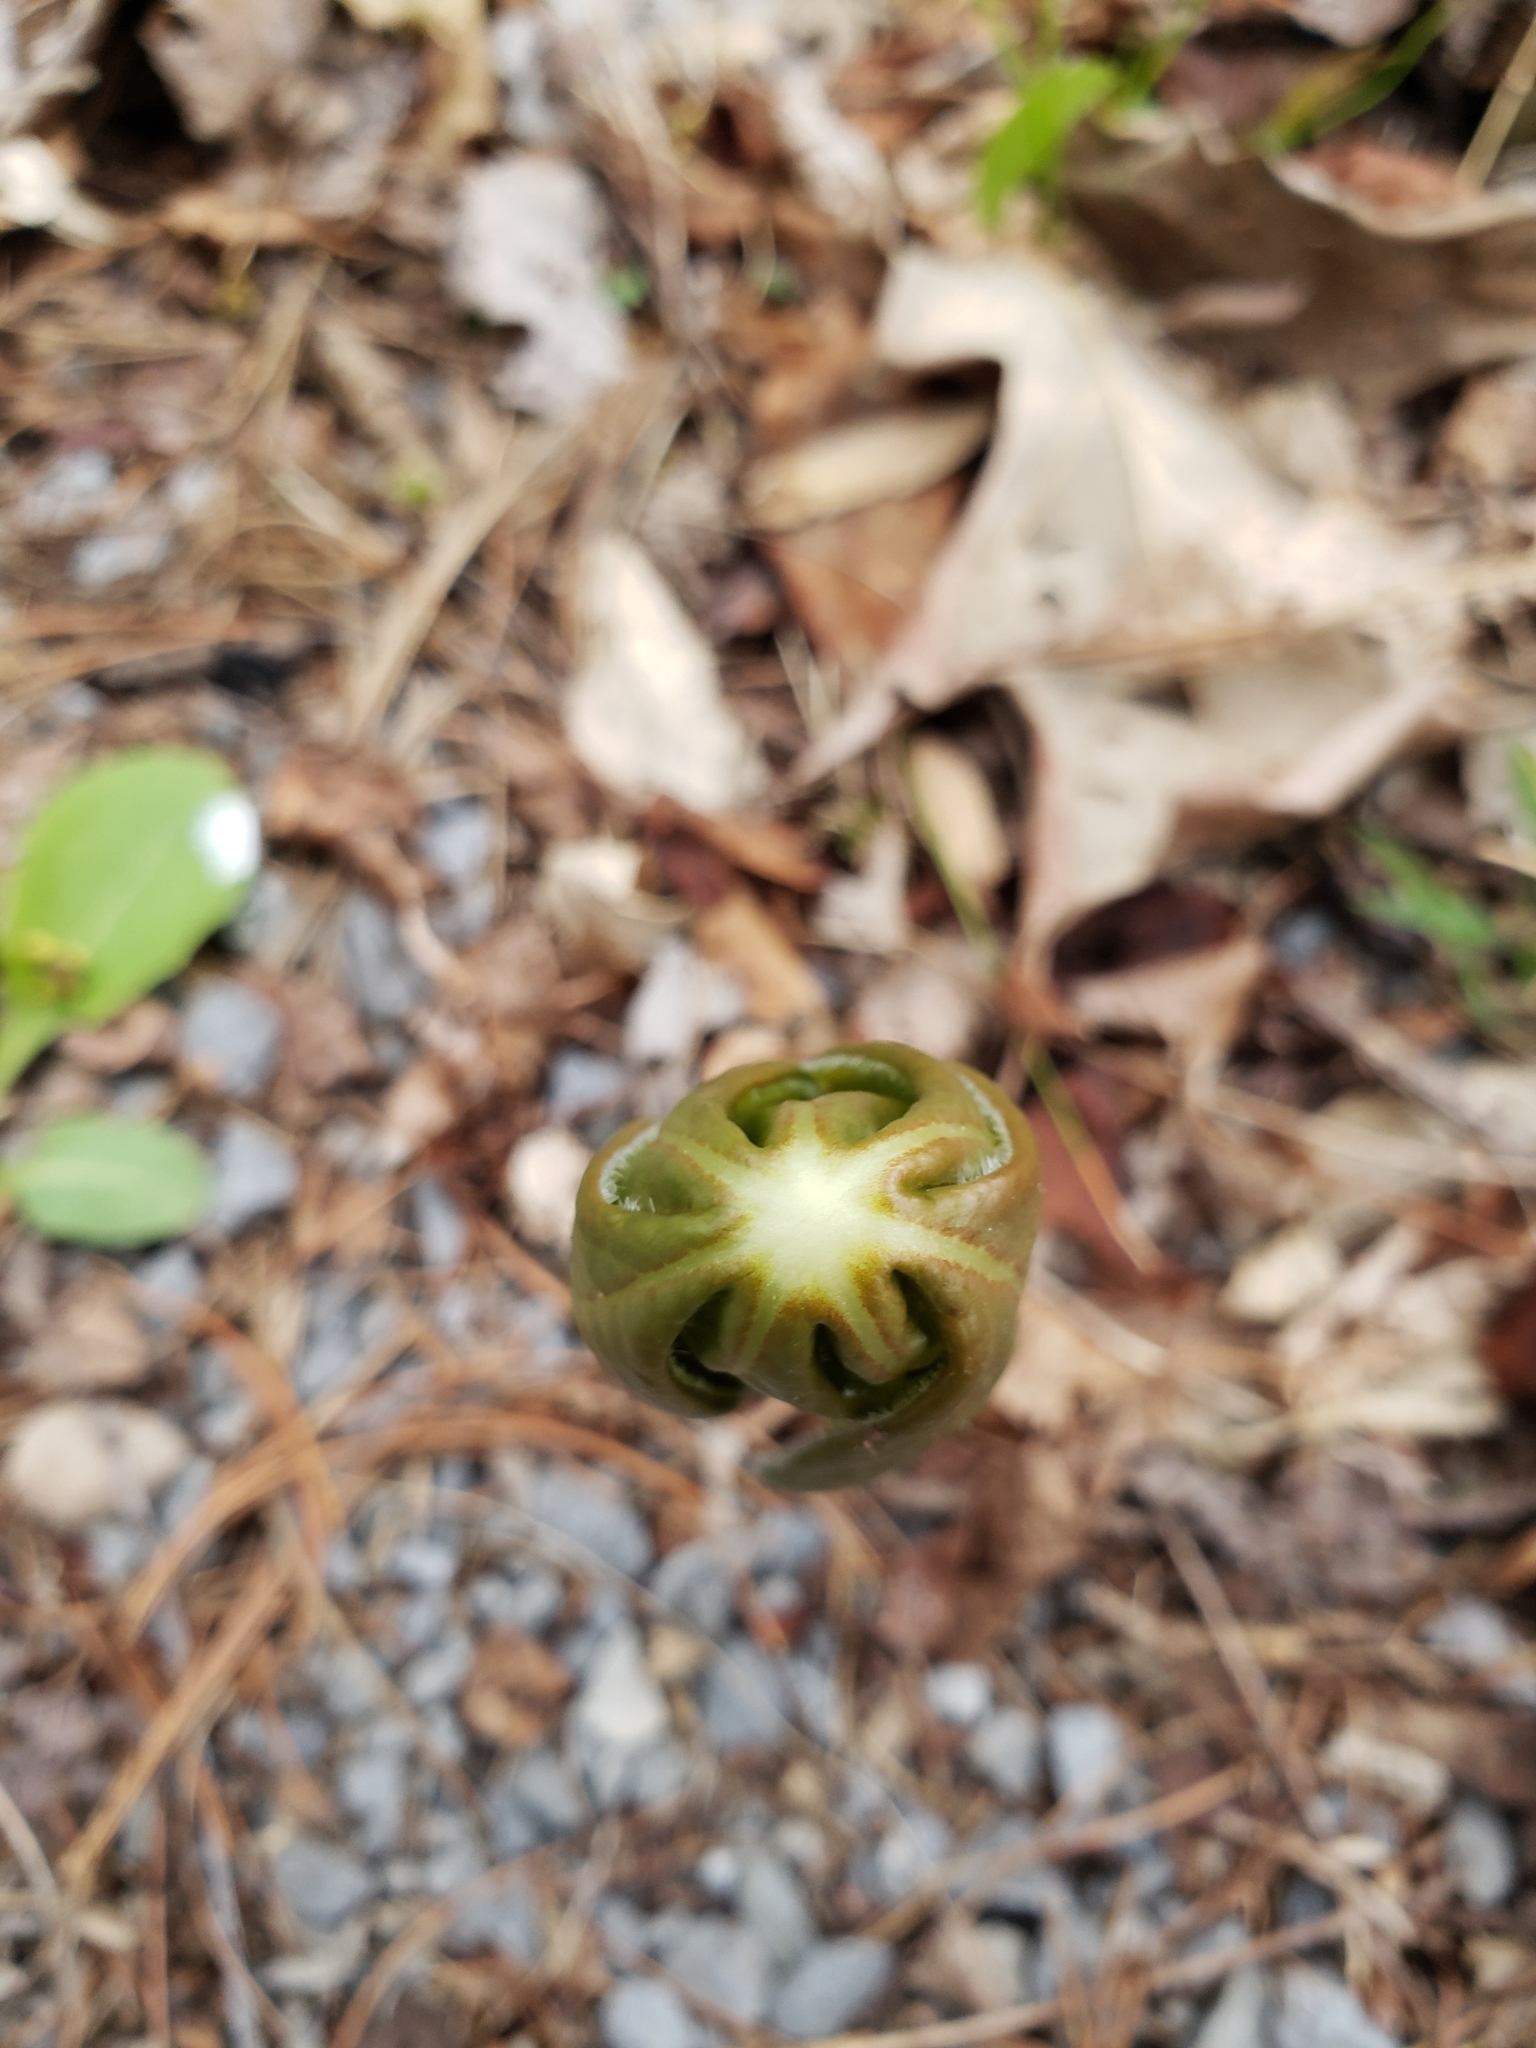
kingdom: Plantae
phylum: Tracheophyta
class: Magnoliopsida
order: Ranunculales
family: Berberidaceae
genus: Podophyllum
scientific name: Podophyllum peltatum
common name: Wild mandrake
